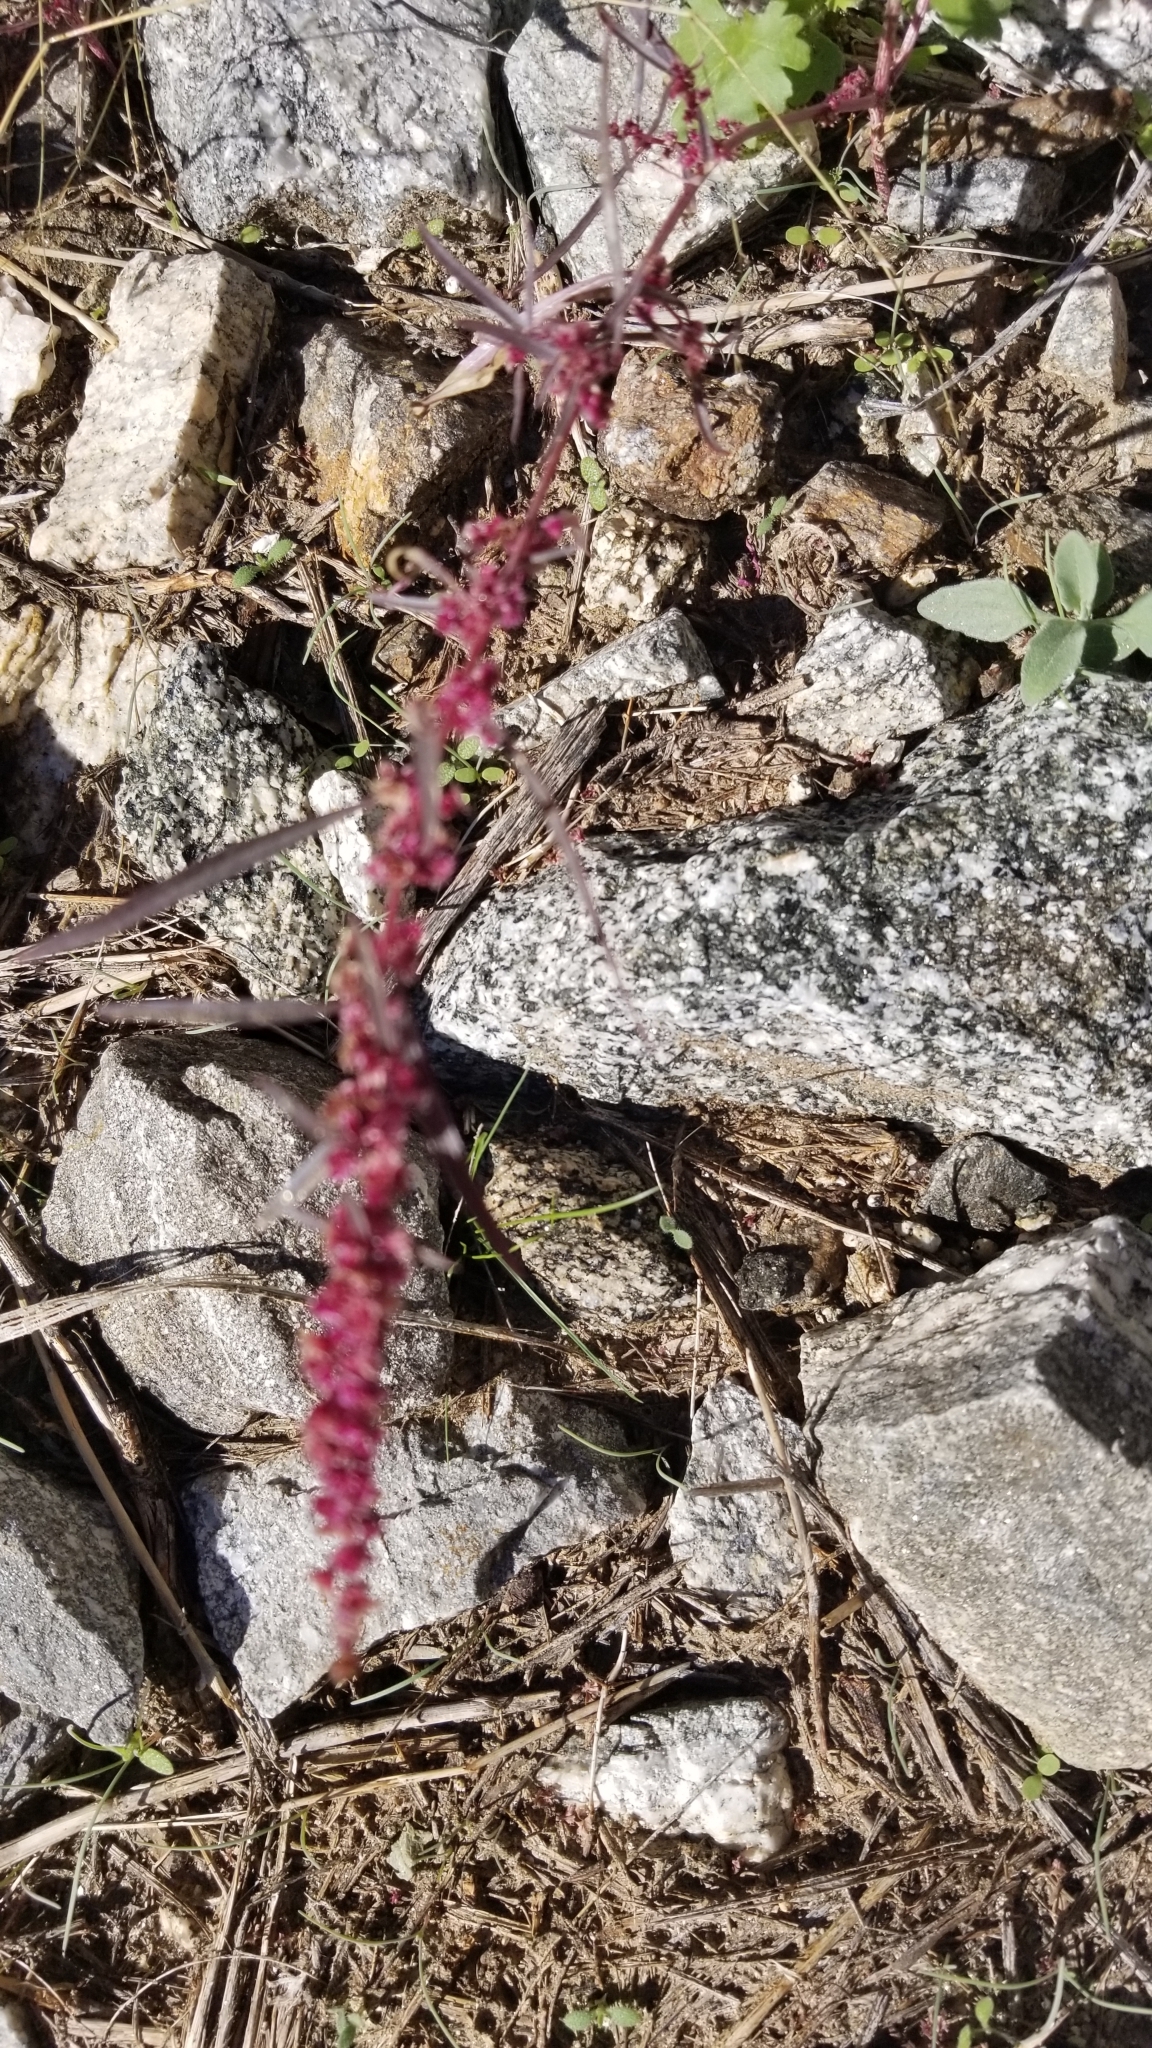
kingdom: Plantae
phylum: Tracheophyta
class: Magnoliopsida
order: Caryophyllales
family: Amaranthaceae
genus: Amaranthus
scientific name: Amaranthus fimbriatus
